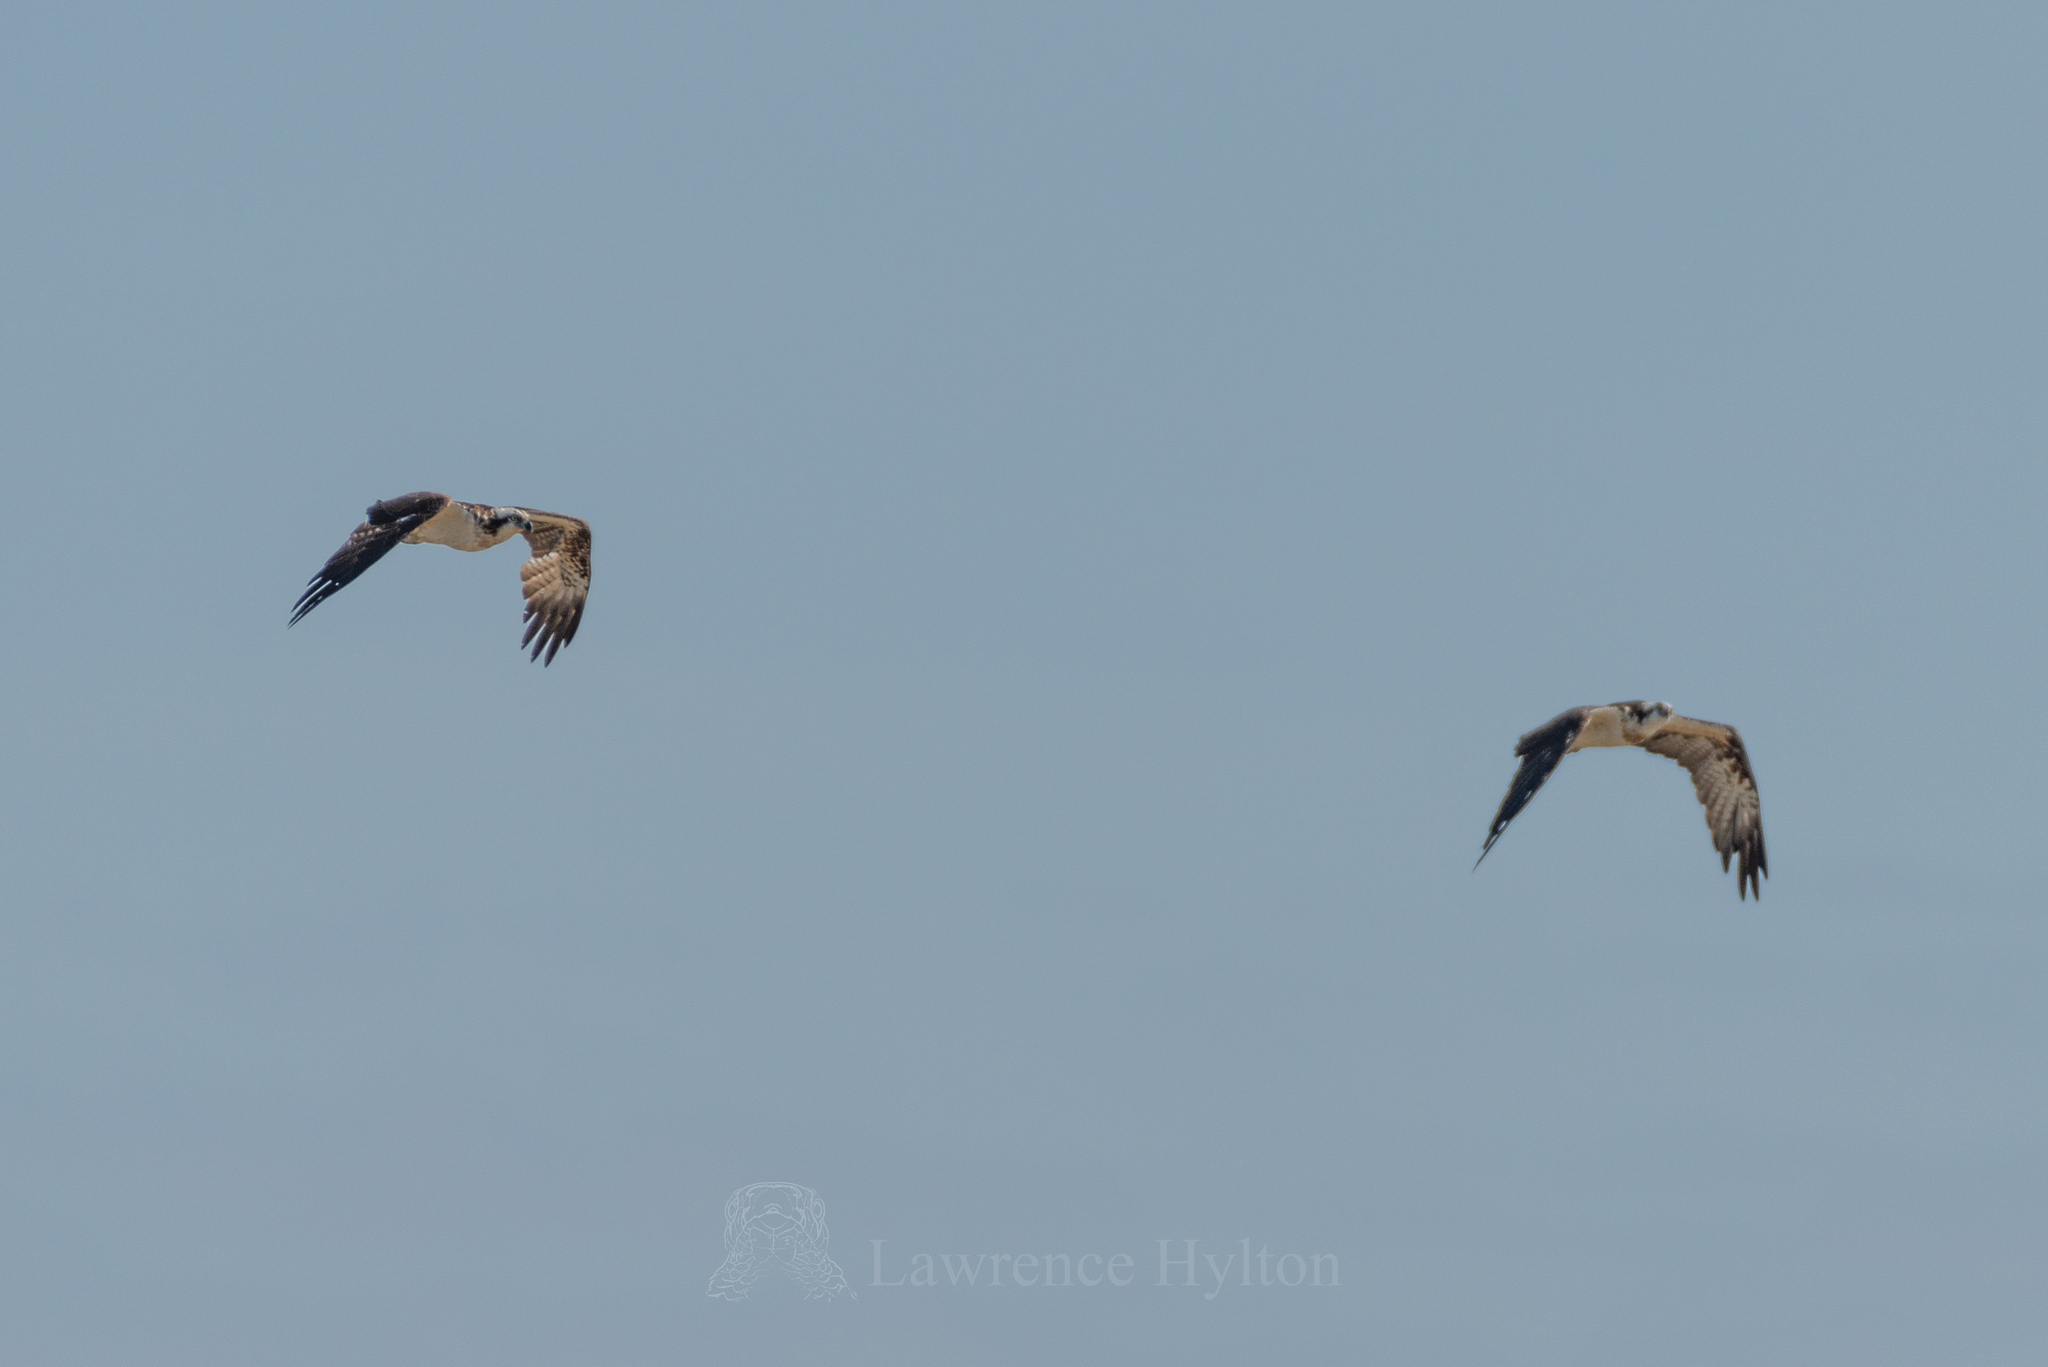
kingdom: Animalia
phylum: Chordata
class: Aves
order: Accipitriformes
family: Pandionidae
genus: Pandion
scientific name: Pandion haliaetus
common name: Osprey
